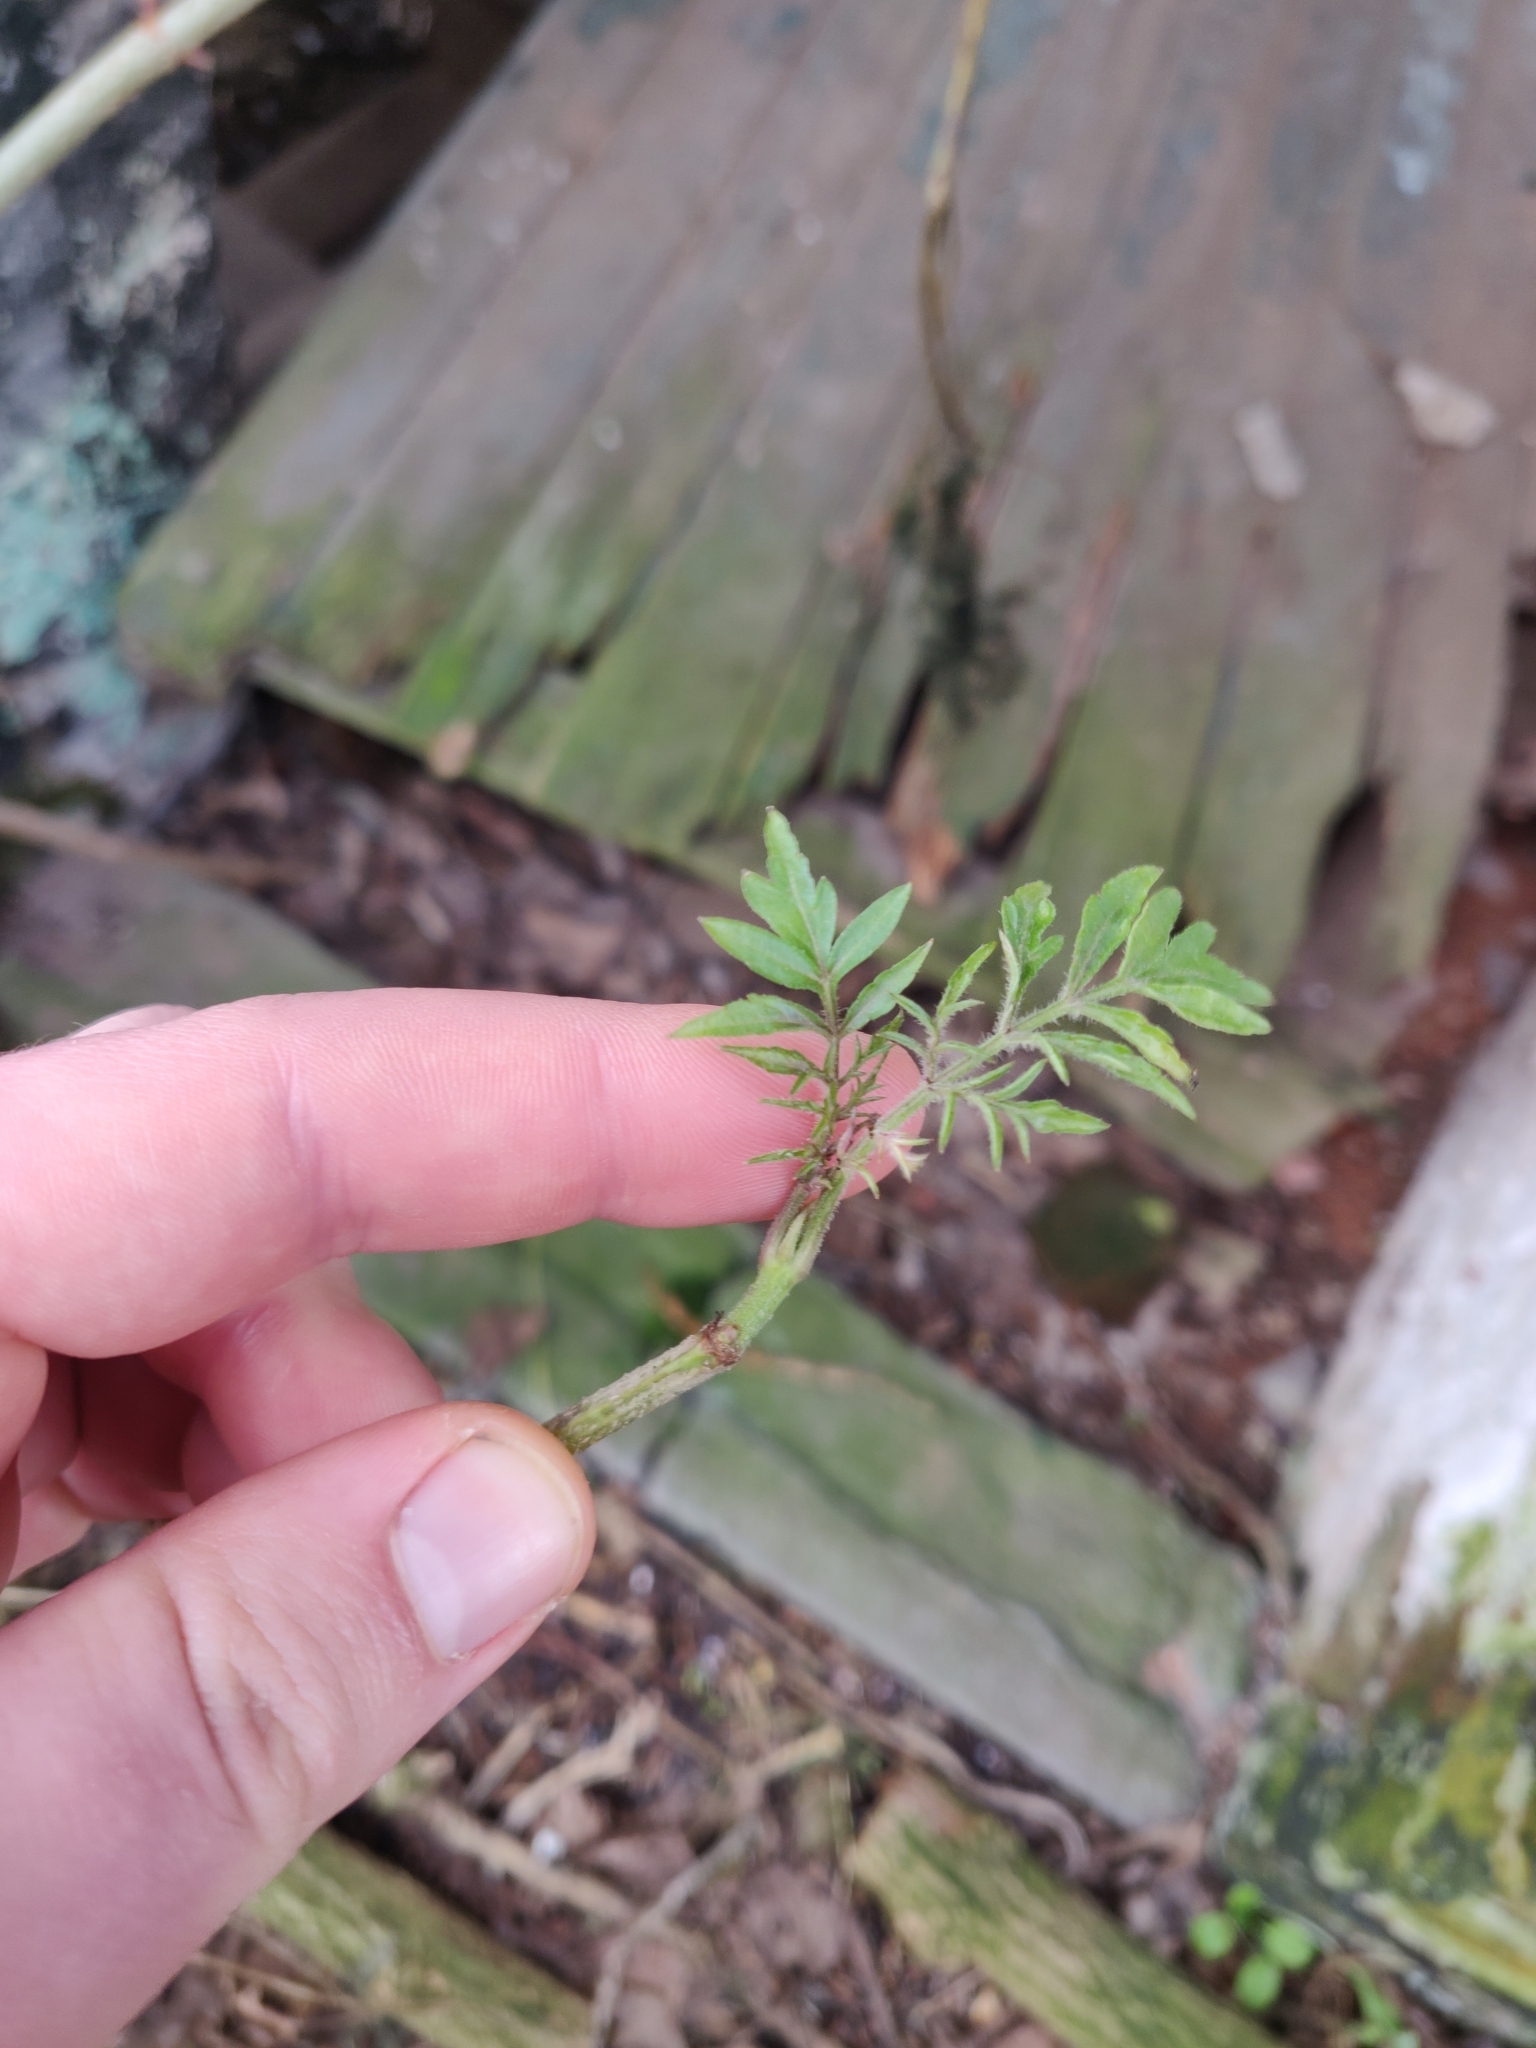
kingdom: Plantae
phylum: Tracheophyta
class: Magnoliopsida
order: Dipsacales
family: Viburnaceae
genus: Sambucus
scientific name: Sambucus nigra
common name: Elder
